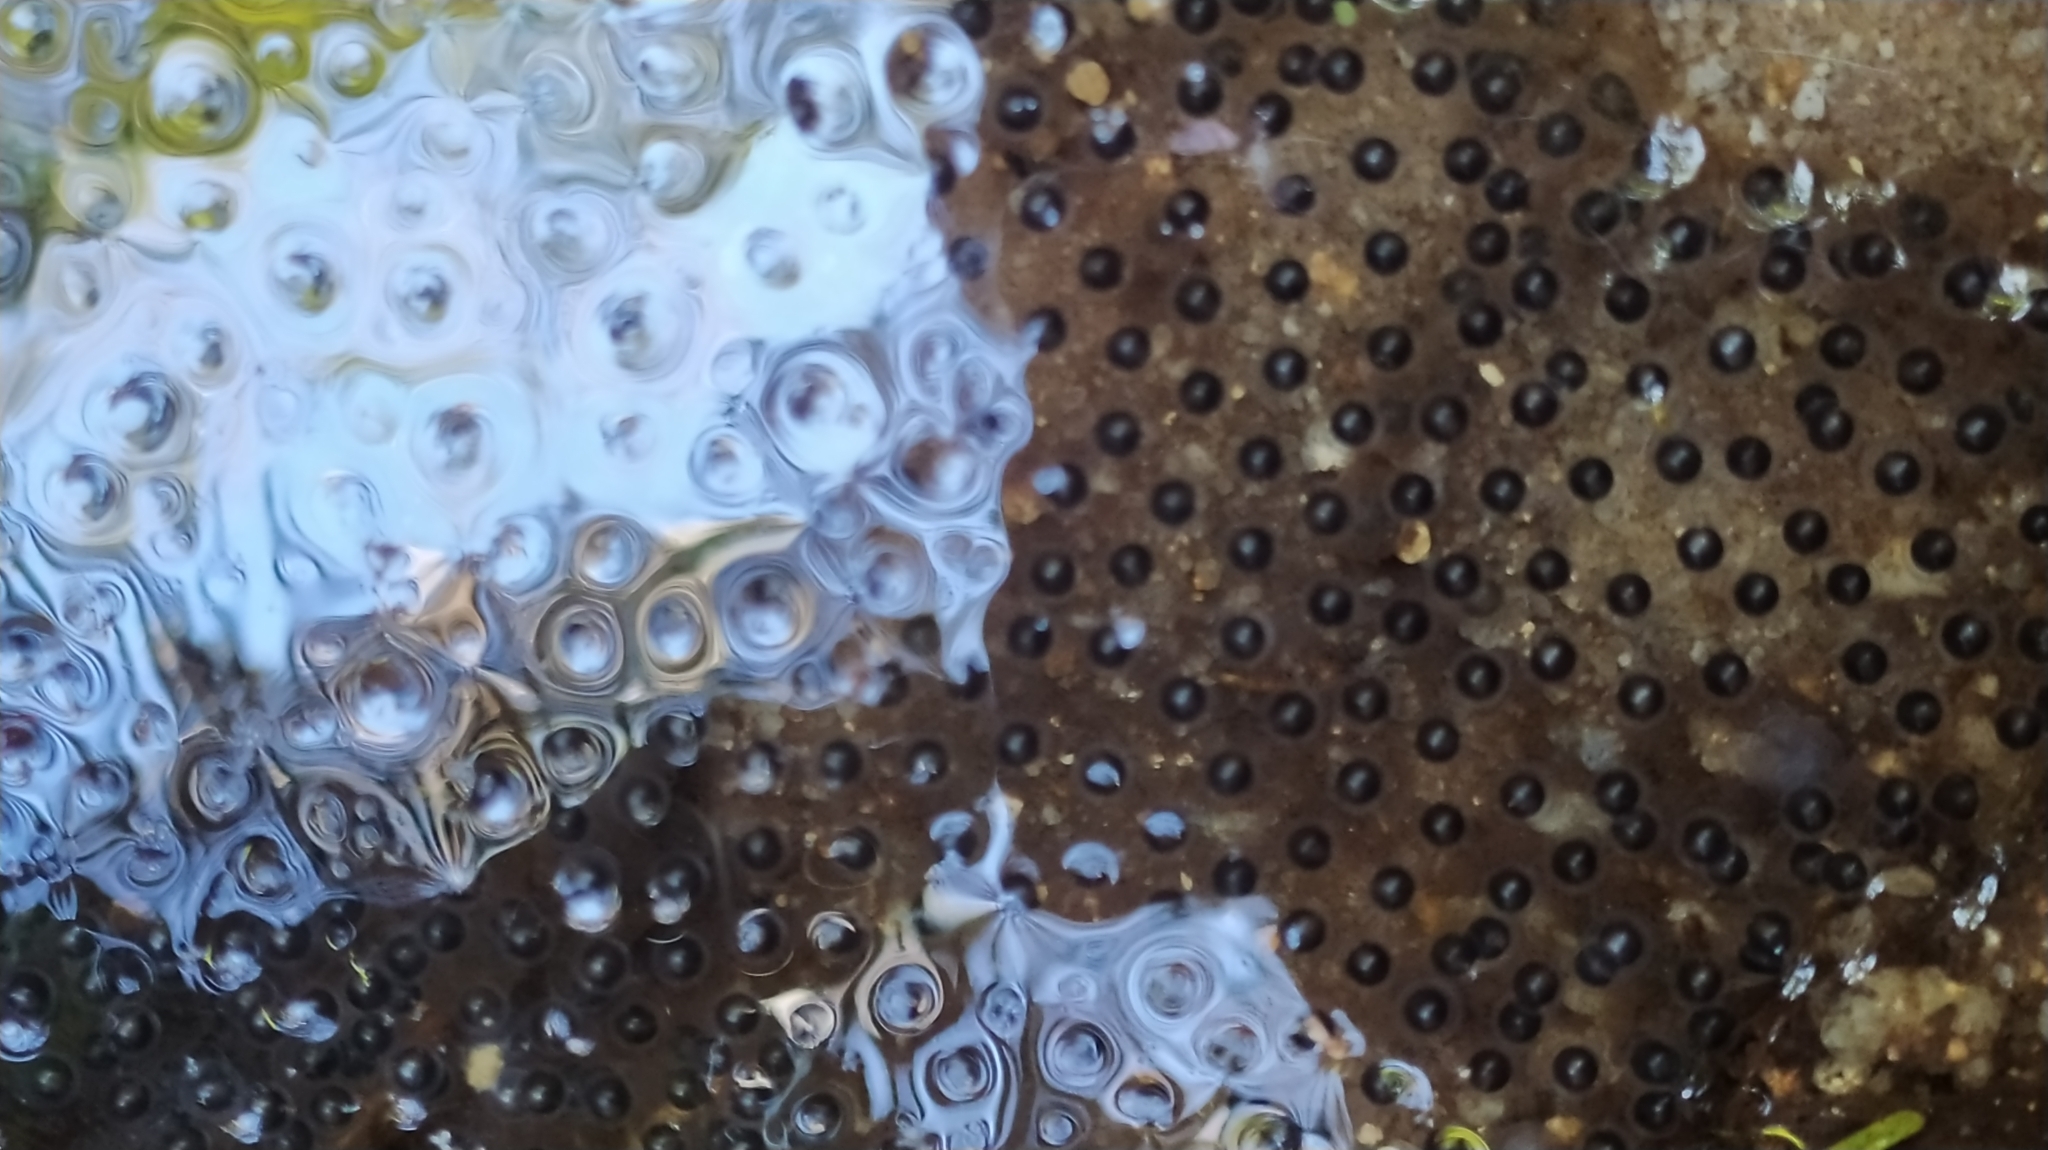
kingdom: Animalia
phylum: Chordata
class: Amphibia
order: Anura
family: Hylidae
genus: Boana
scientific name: Boana boans
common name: Giant gladiator treefrog
